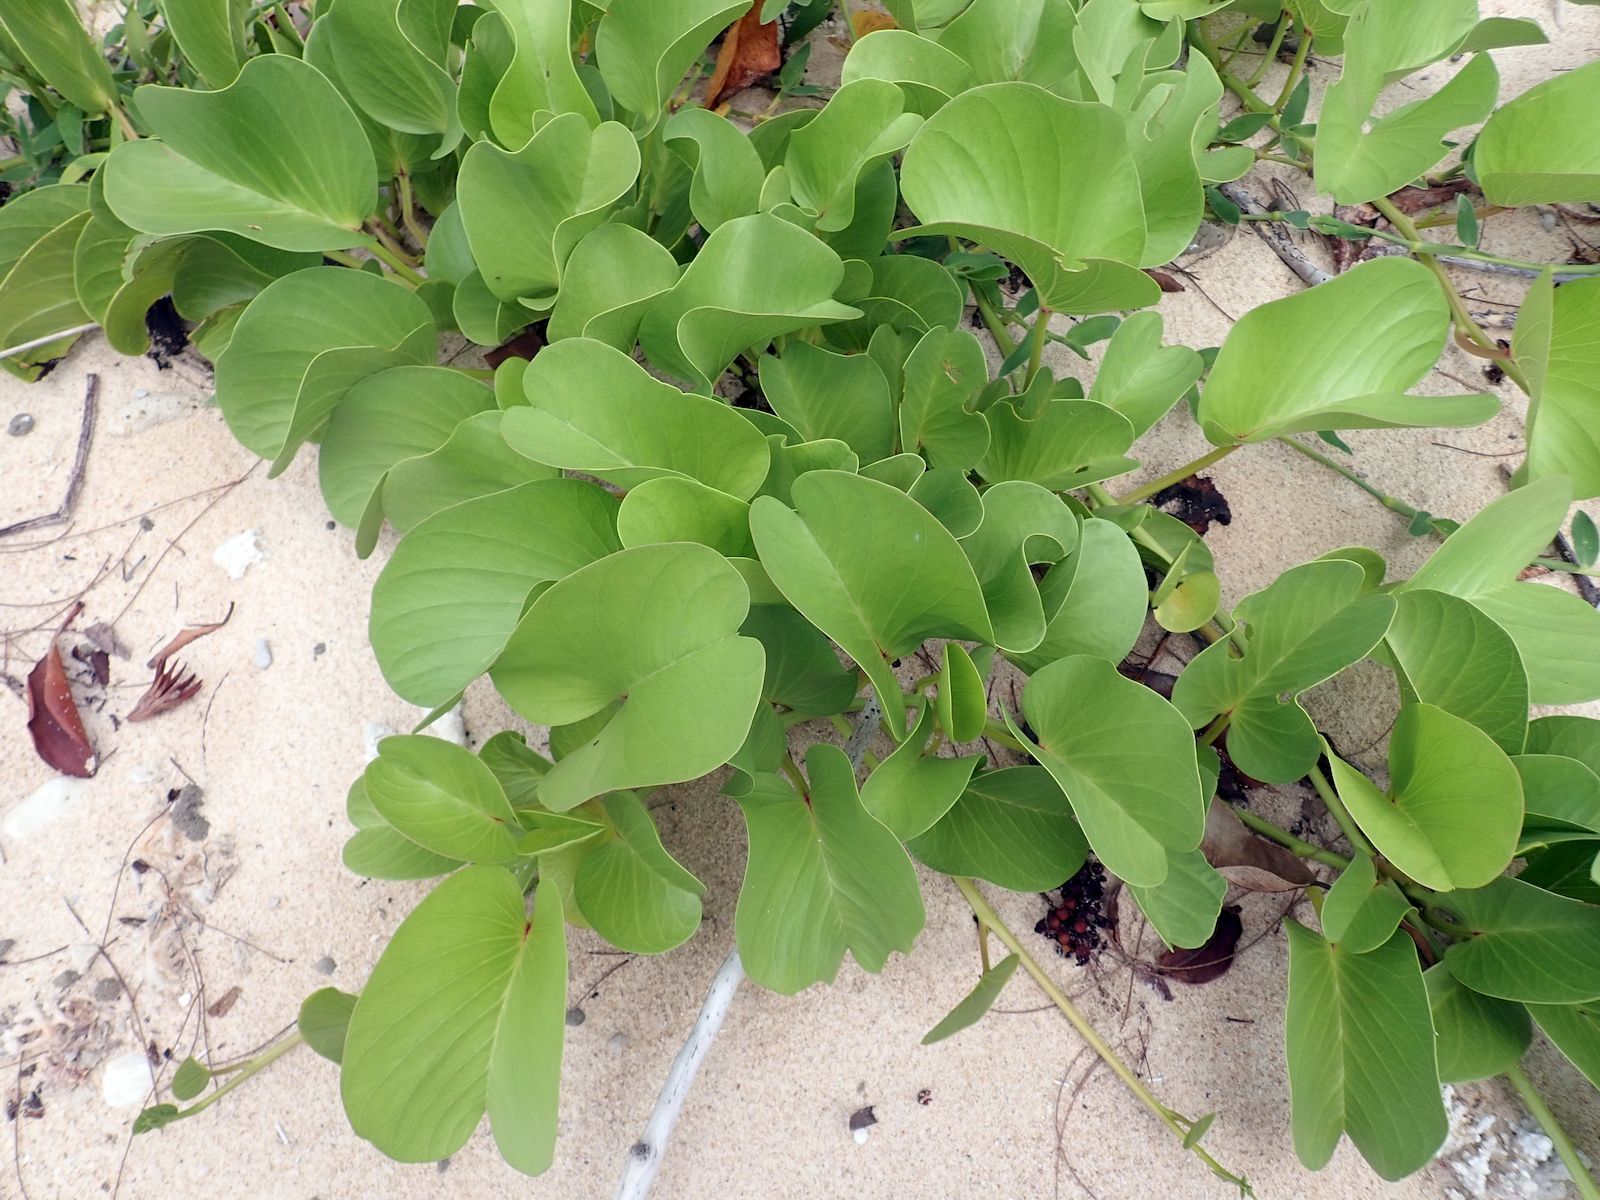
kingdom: Plantae
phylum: Tracheophyta
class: Magnoliopsida
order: Solanales
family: Convolvulaceae
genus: Ipomoea
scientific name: Ipomoea pes-caprae
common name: Beach morning glory
